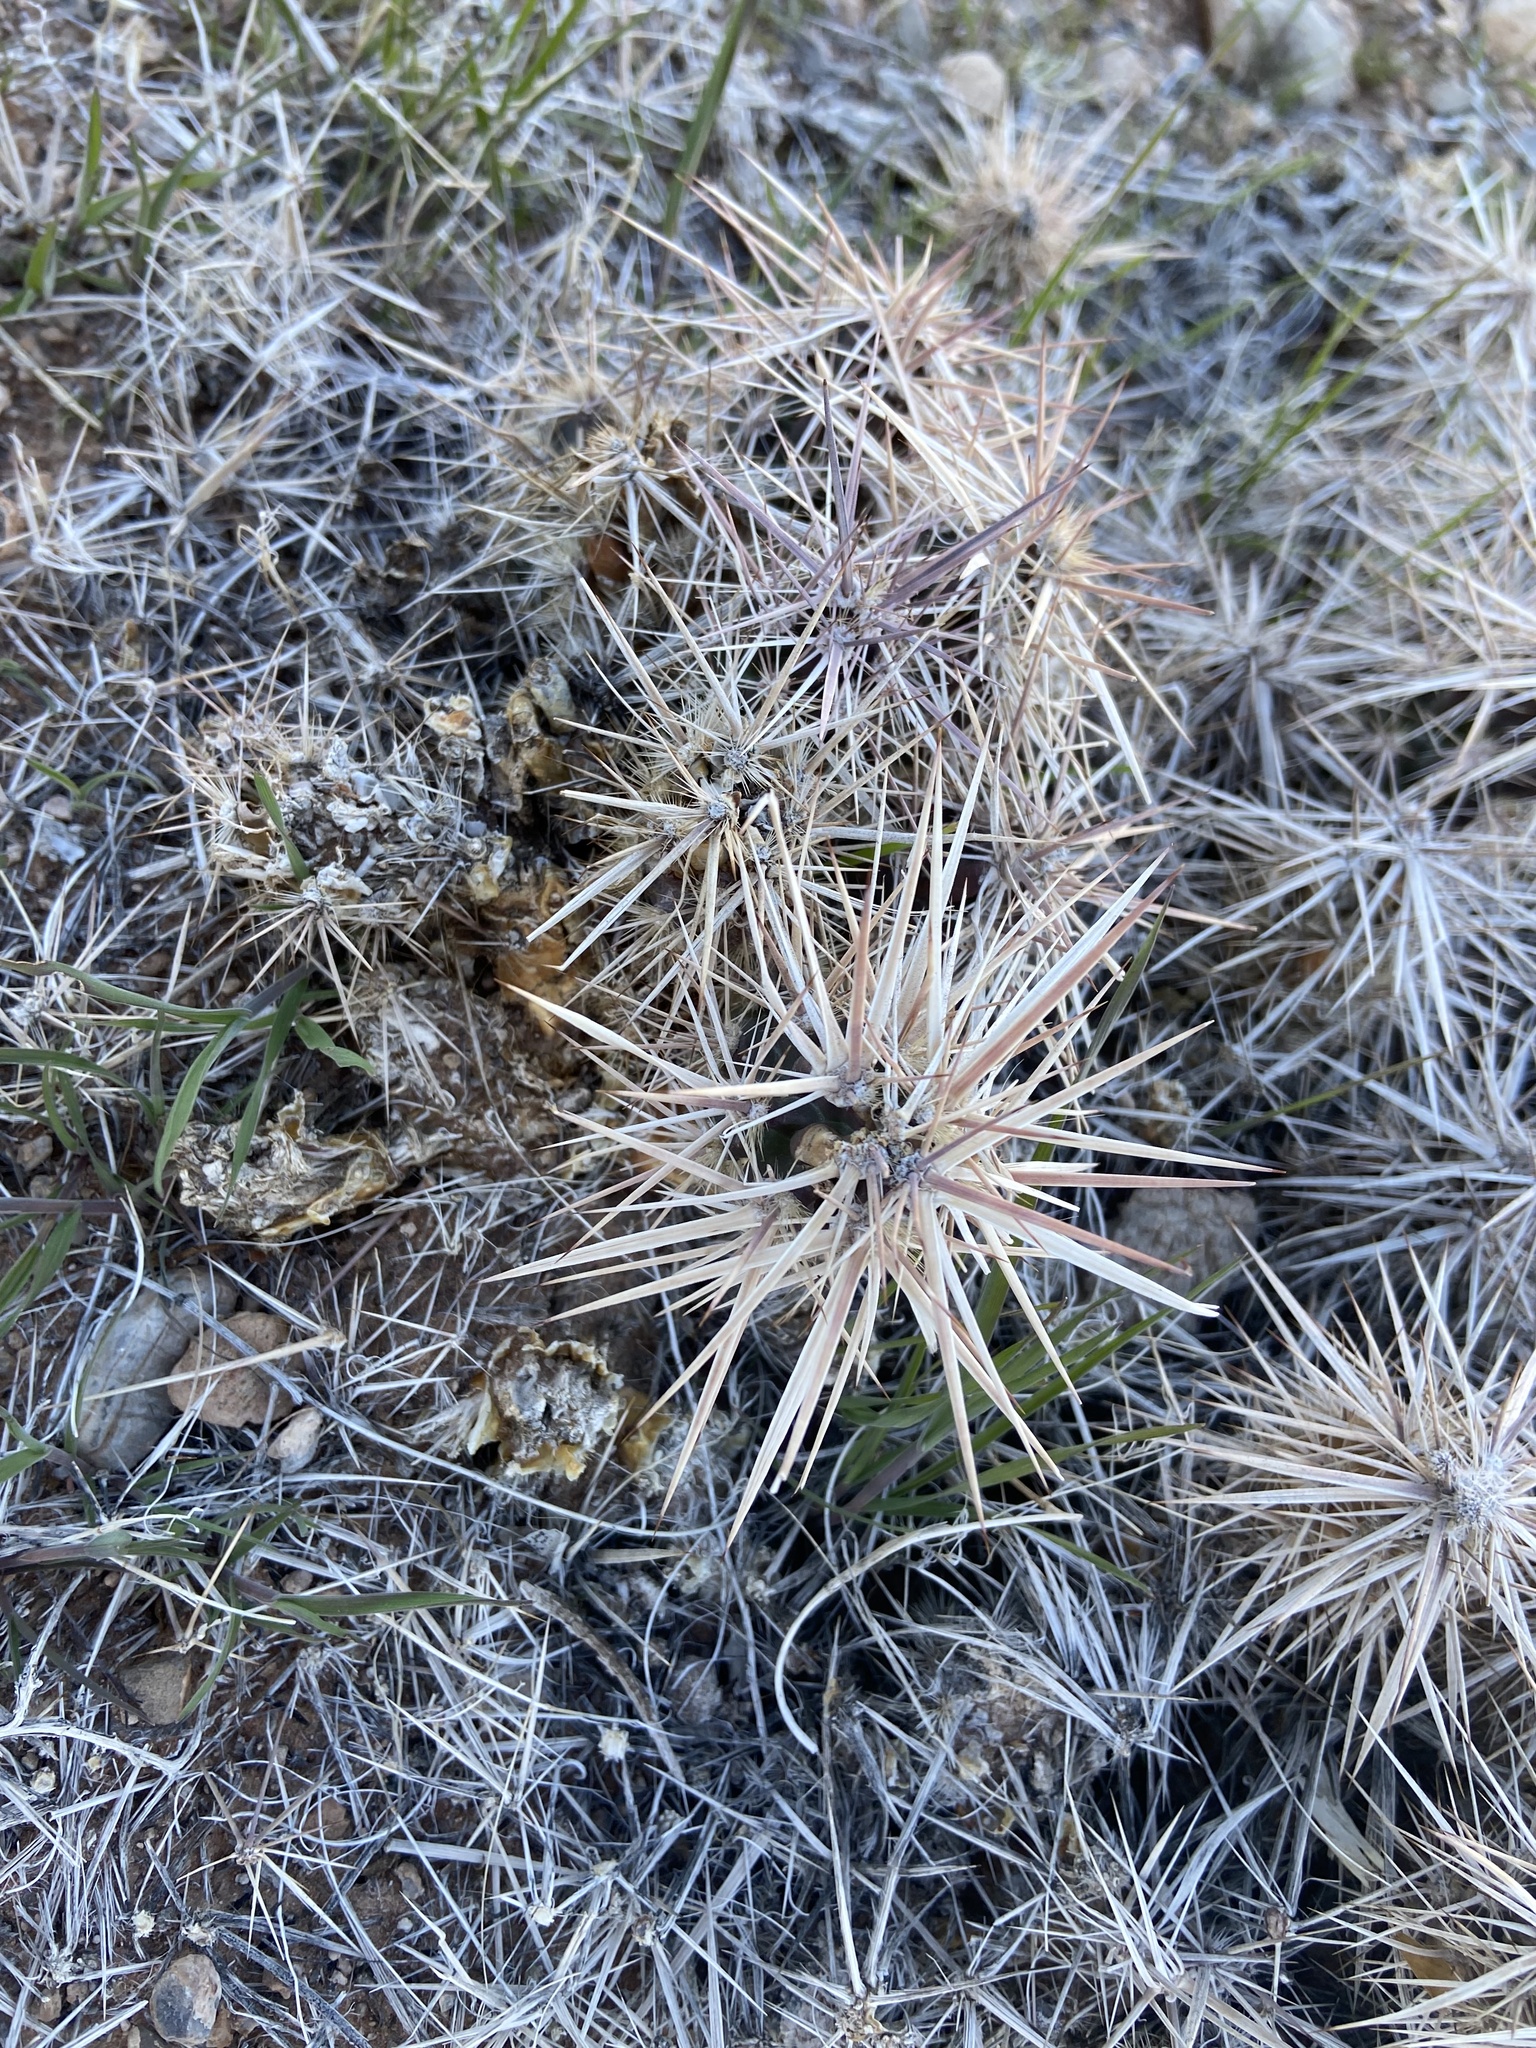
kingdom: Plantae
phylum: Tracheophyta
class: Magnoliopsida
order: Caryophyllales
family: Cactaceae
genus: Grusonia
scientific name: Grusonia parishiorum
